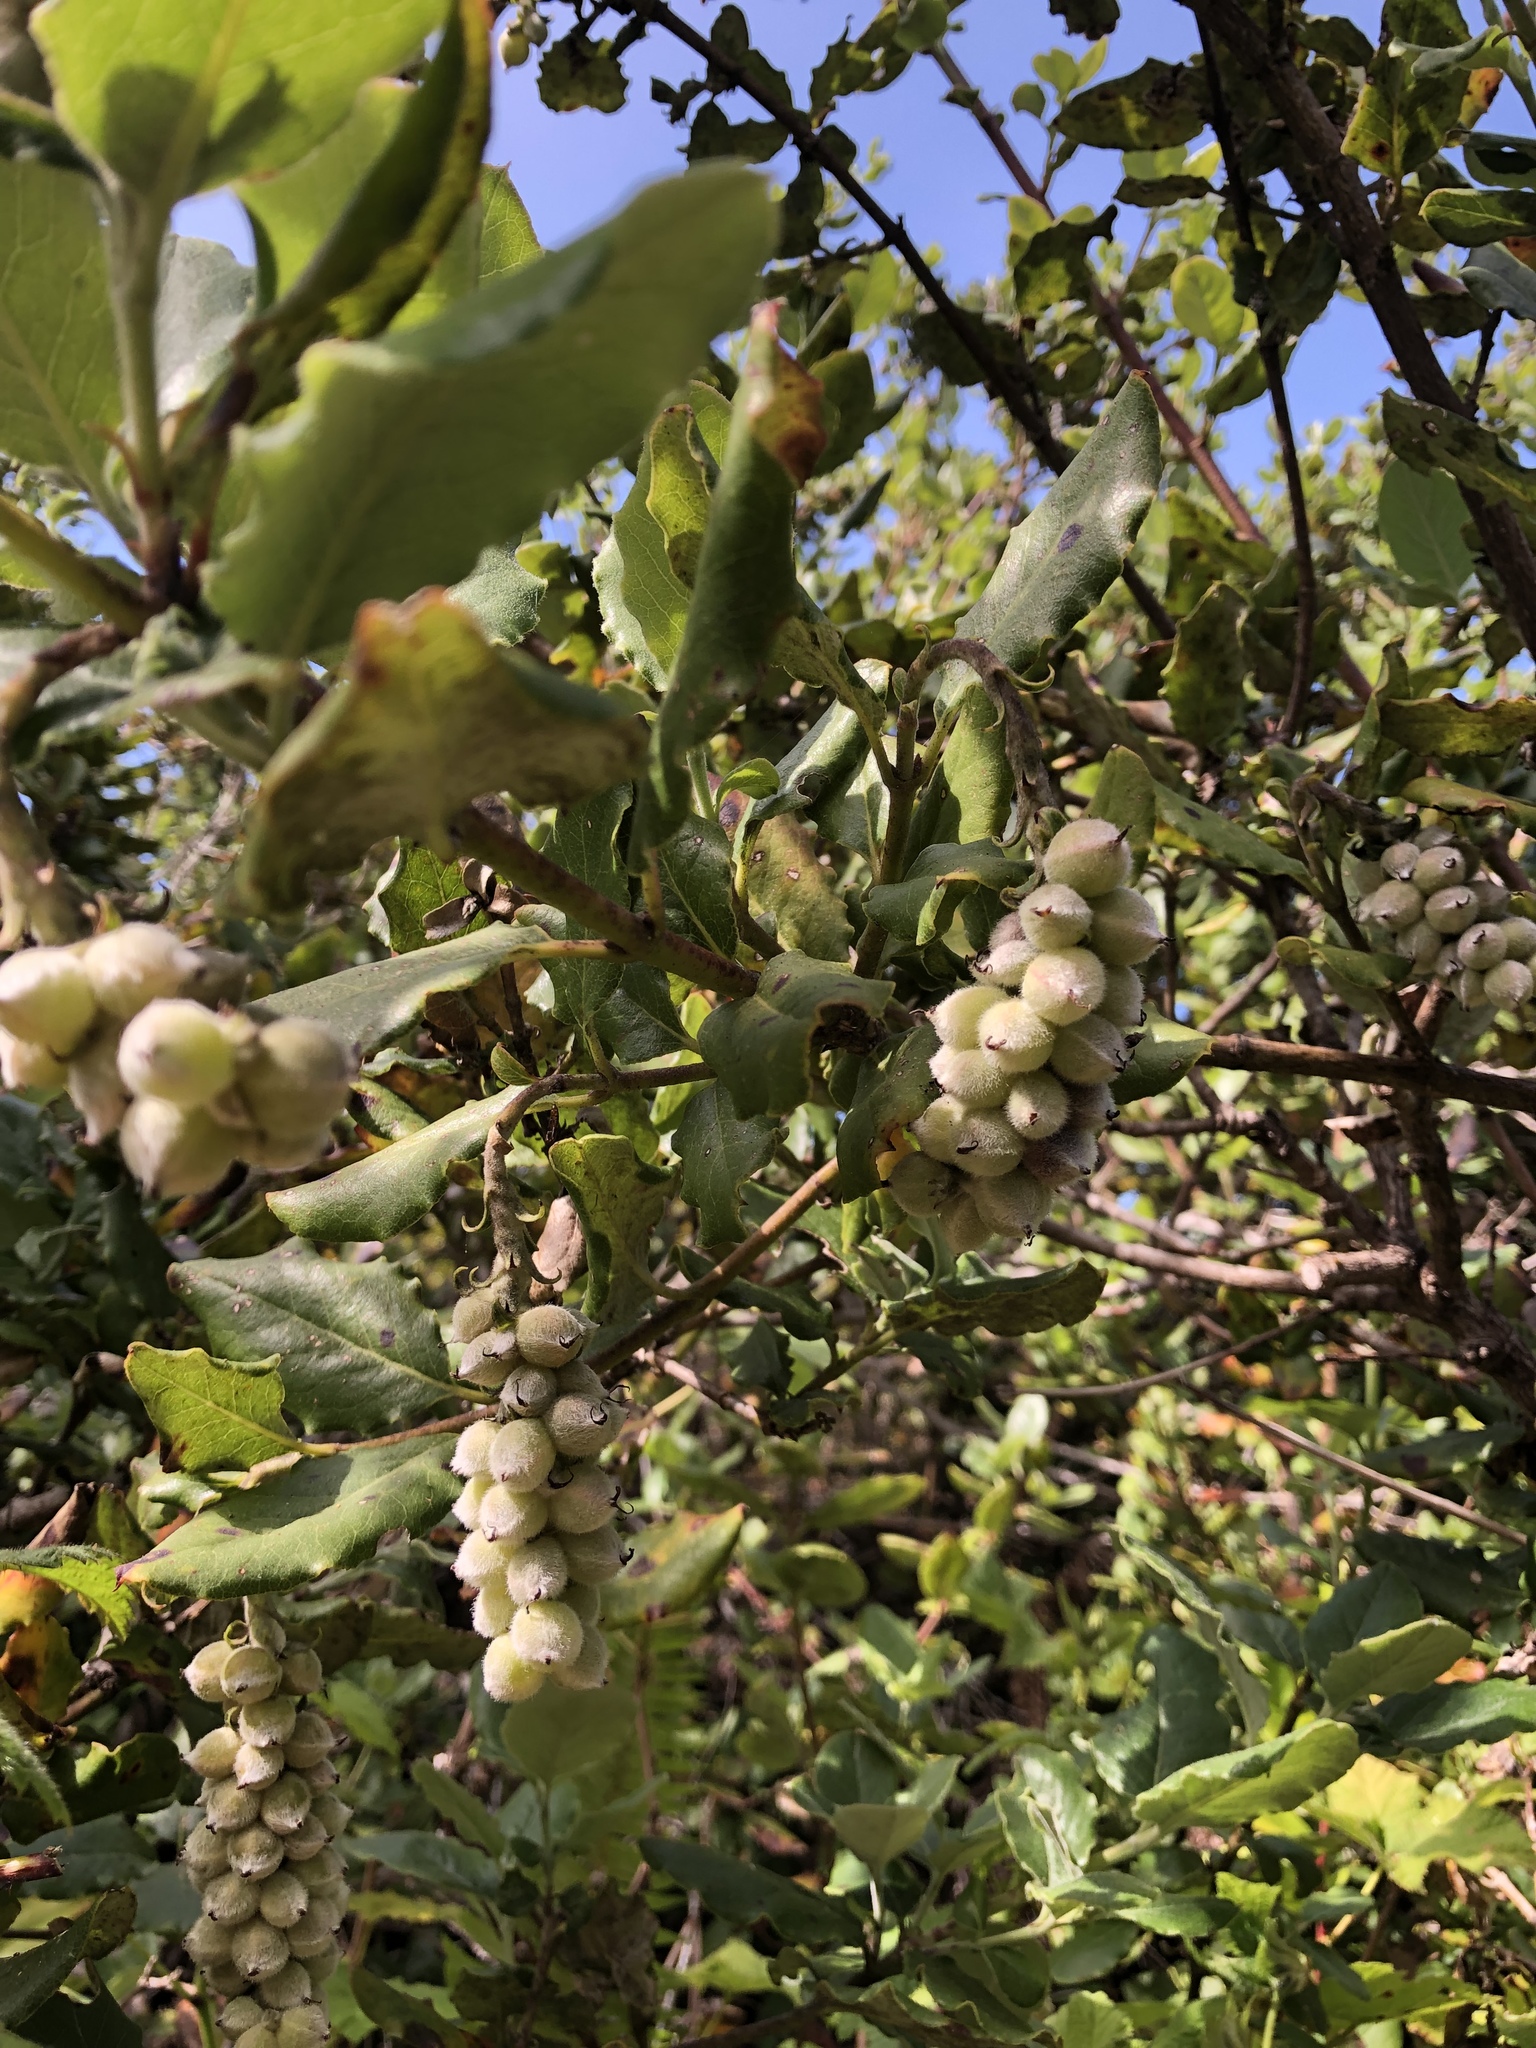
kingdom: Plantae
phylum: Tracheophyta
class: Magnoliopsida
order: Garryales
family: Garryaceae
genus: Garrya
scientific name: Garrya elliptica
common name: Silk-tassel
